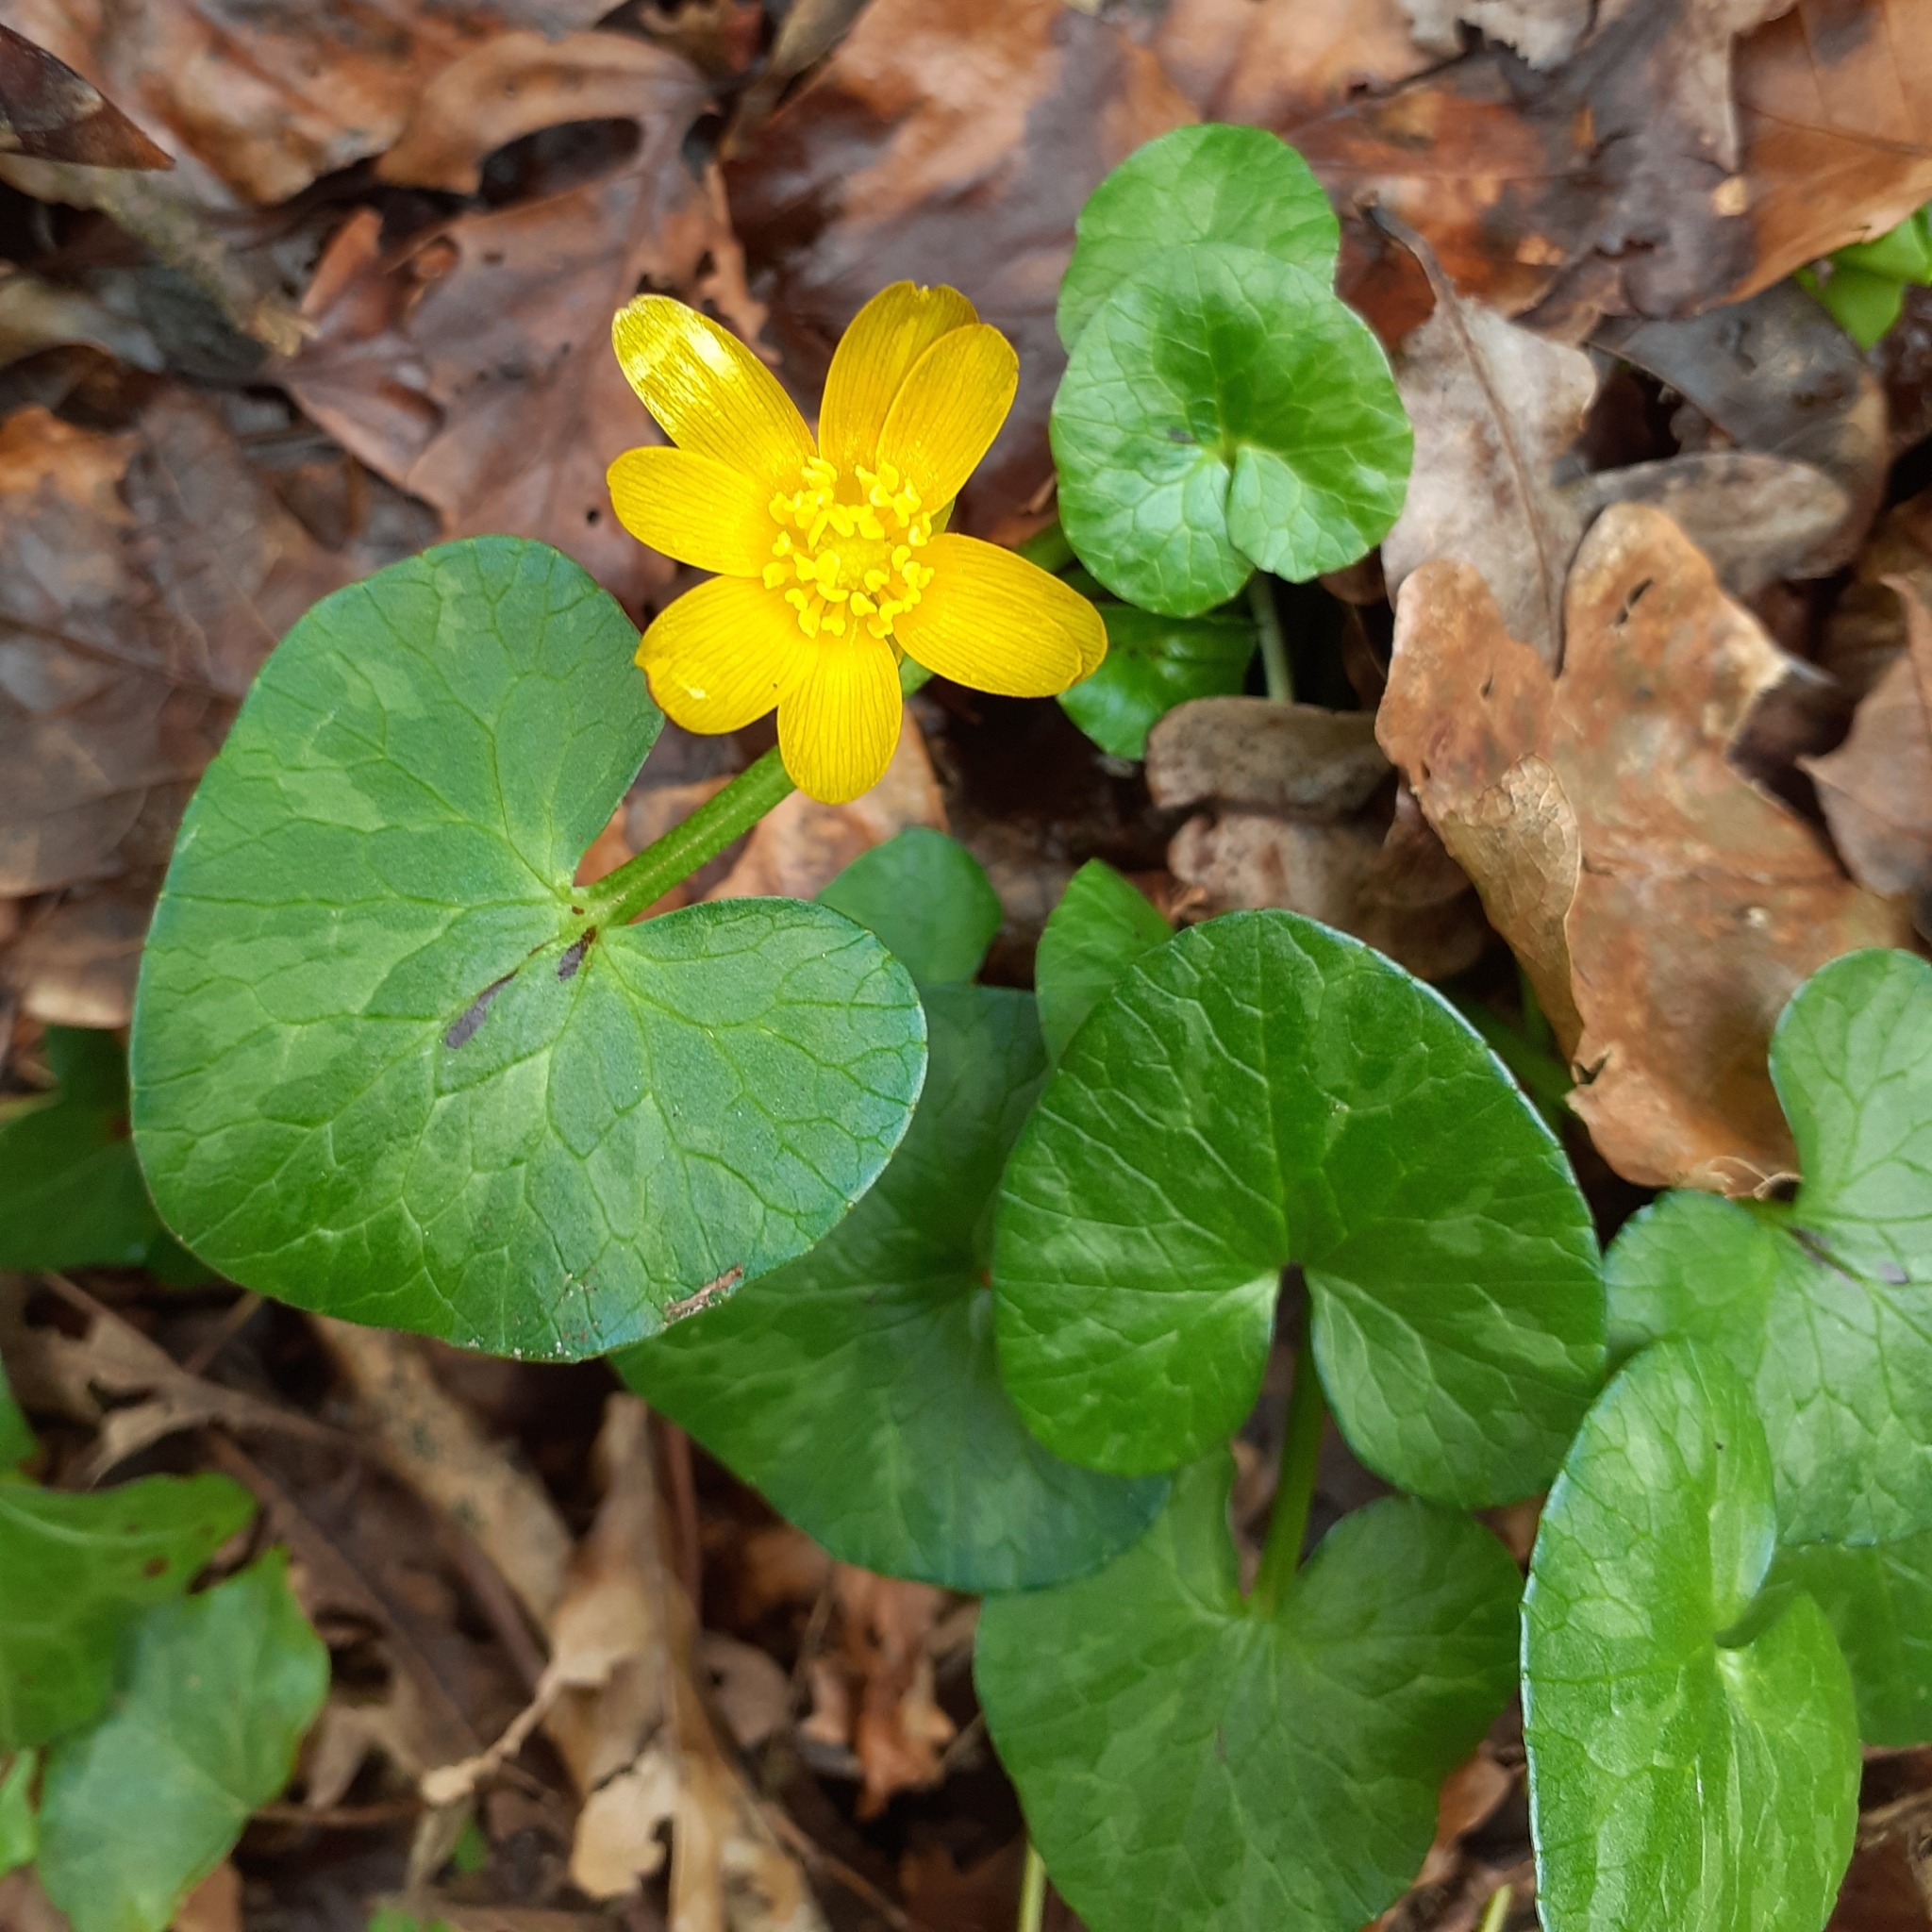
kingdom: Plantae
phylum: Tracheophyta
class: Magnoliopsida
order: Ranunculales
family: Ranunculaceae
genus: Ficaria
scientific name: Ficaria verna
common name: Lesser celandine
